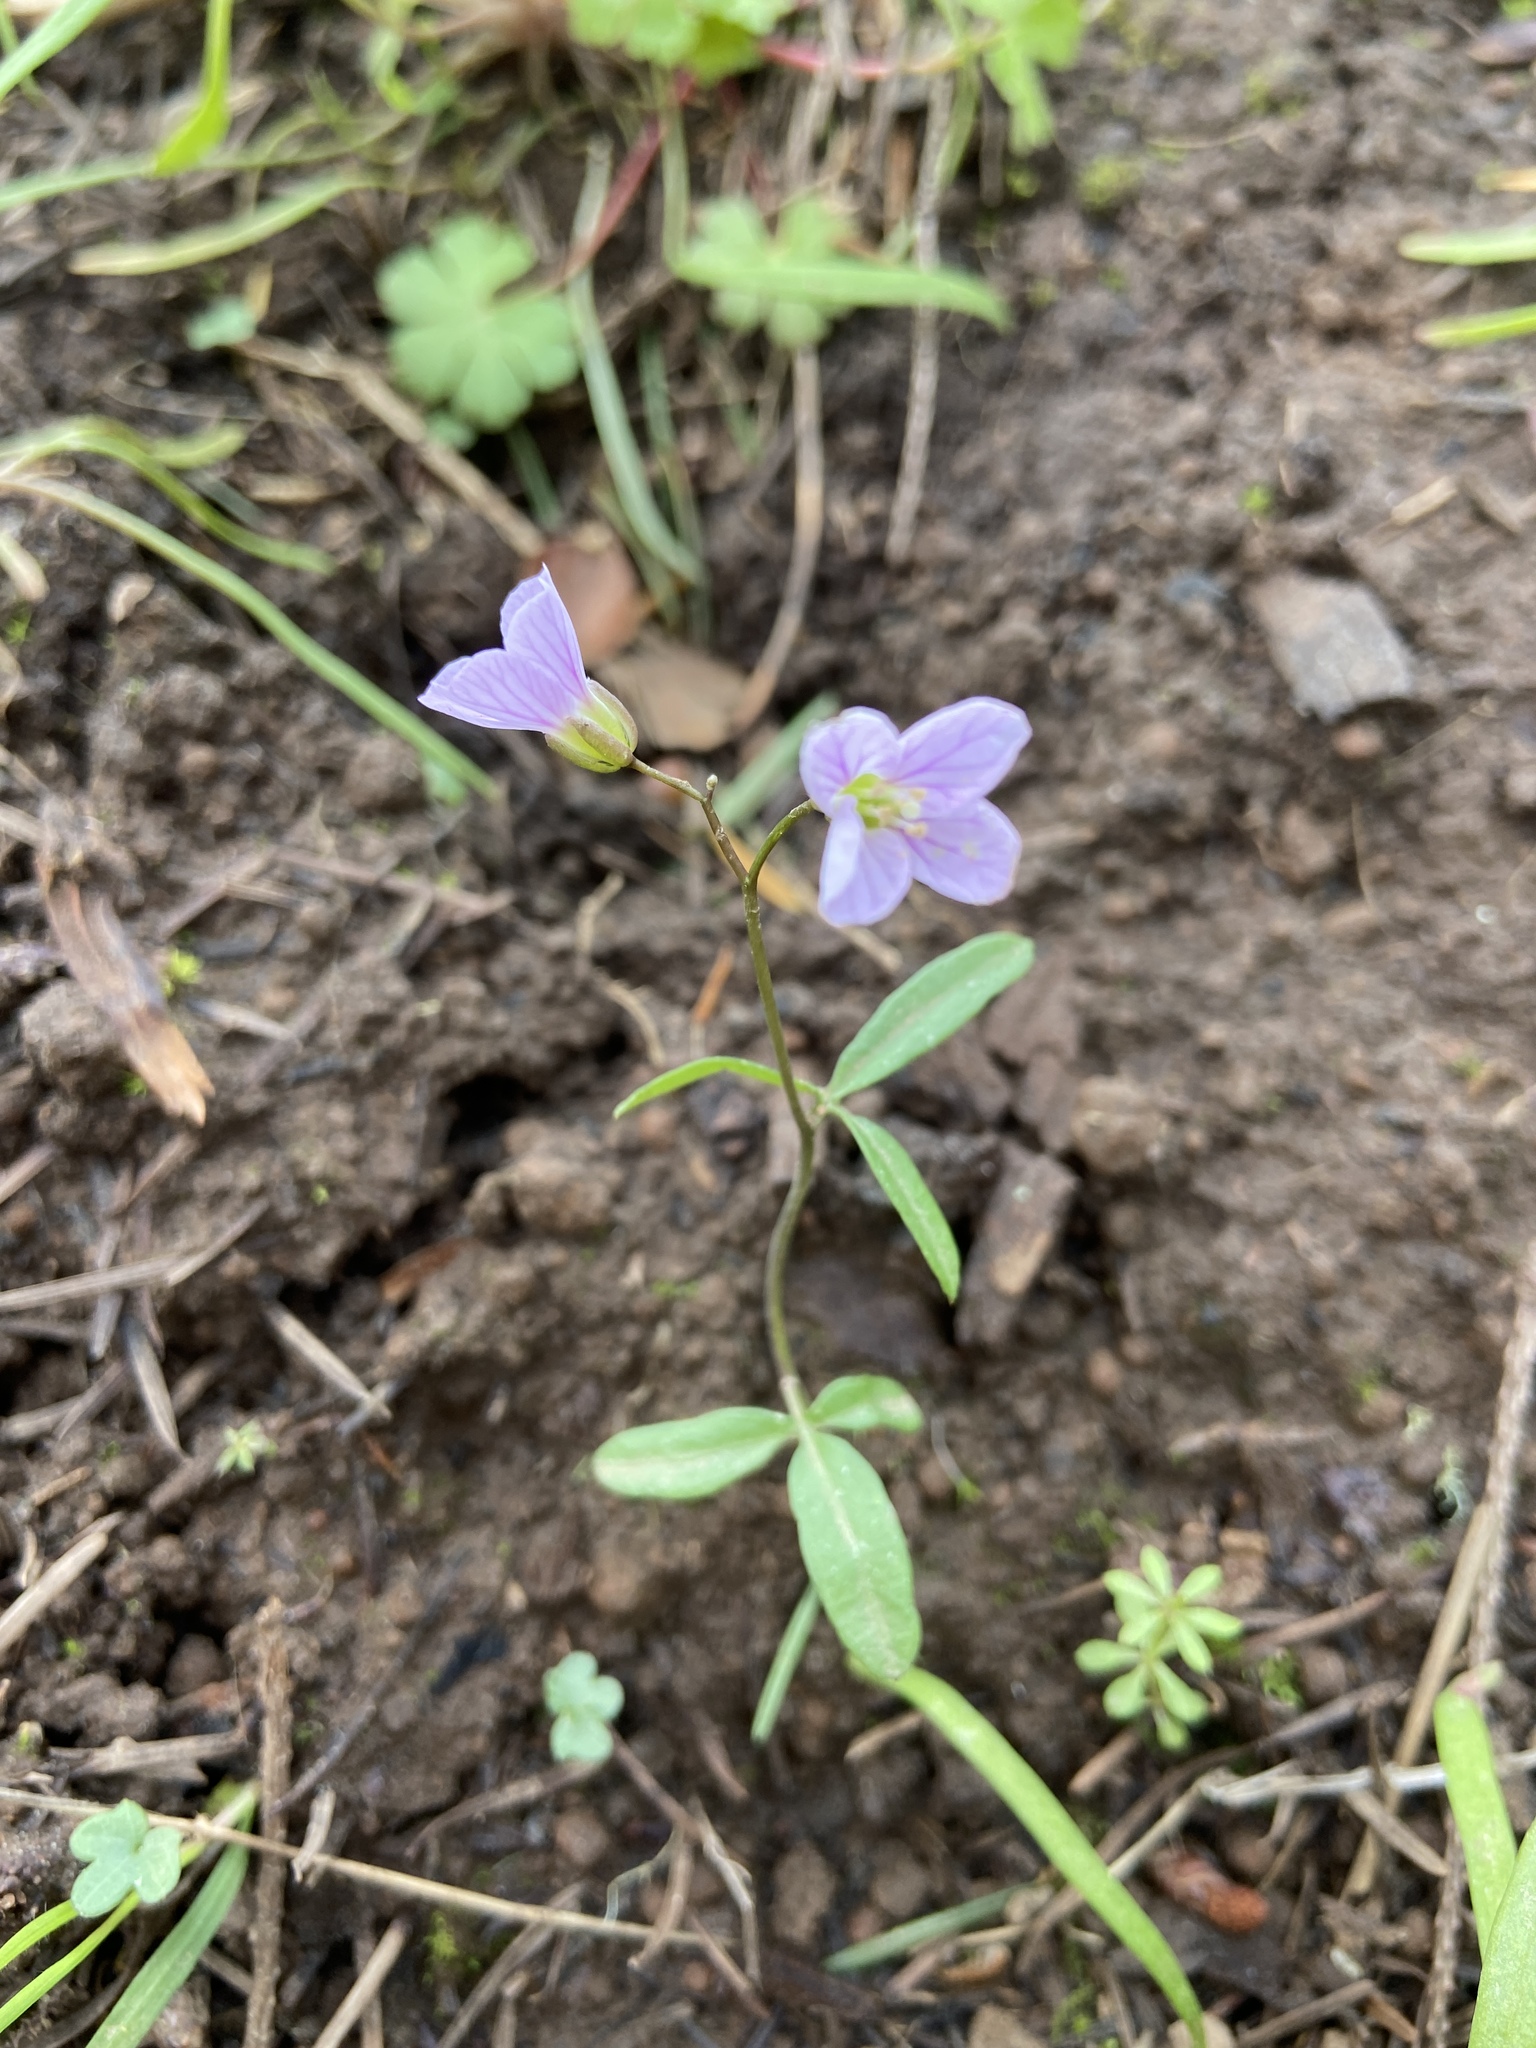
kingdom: Plantae
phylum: Tracheophyta
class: Magnoliopsida
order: Brassicales
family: Brassicaceae
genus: Cardamine
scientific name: Cardamine nuttallii
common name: Nuttall's toothwort
